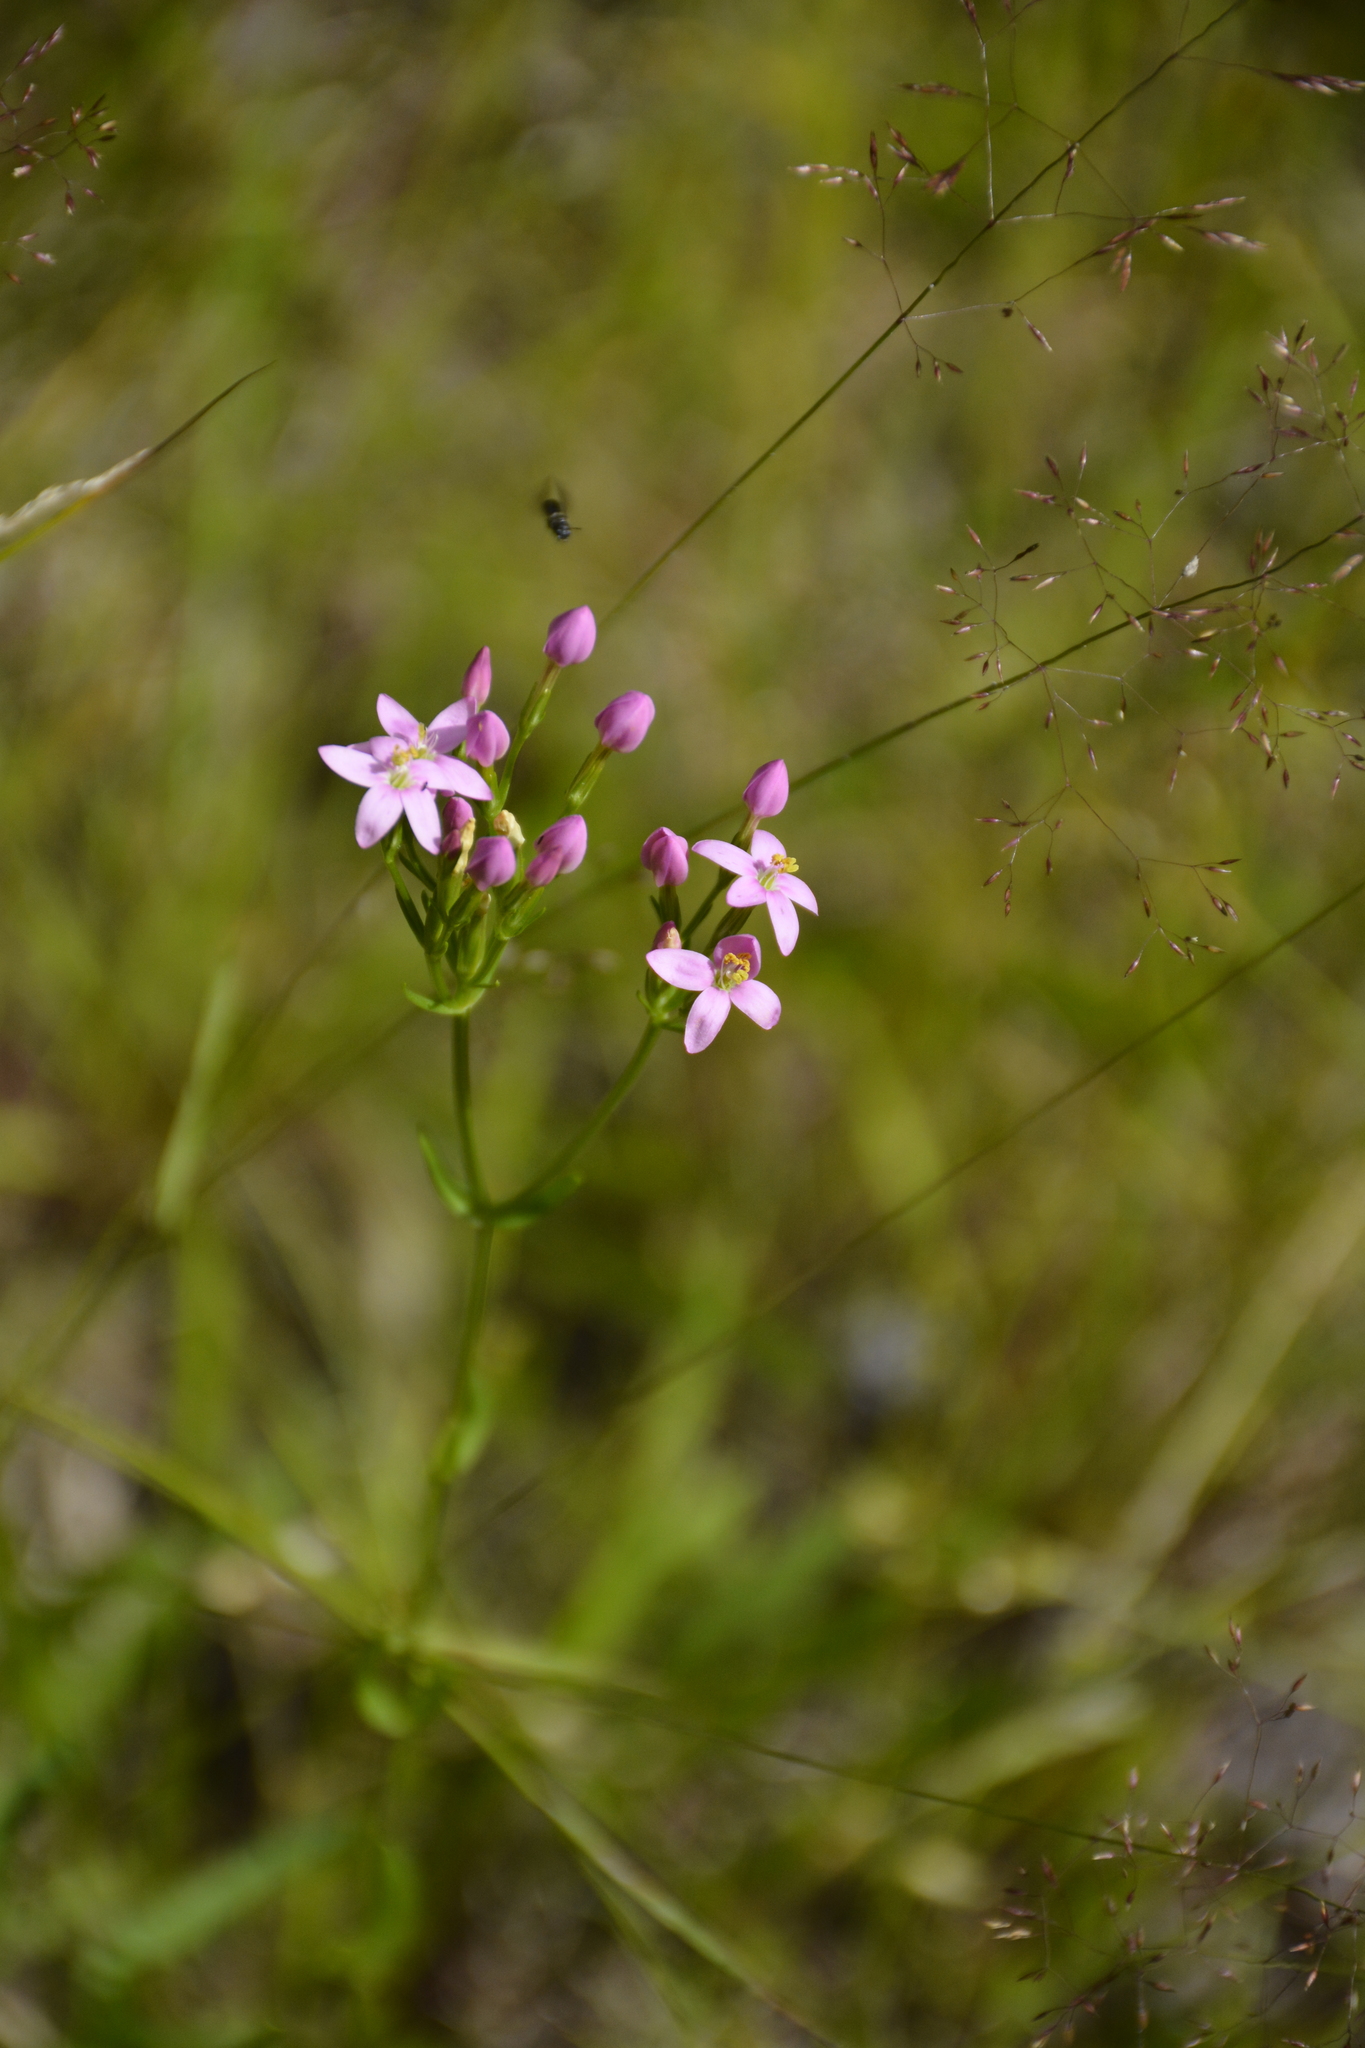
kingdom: Plantae
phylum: Tracheophyta
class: Magnoliopsida
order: Gentianales
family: Gentianaceae
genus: Centaurium
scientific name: Centaurium erythraea
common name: Common centaury
